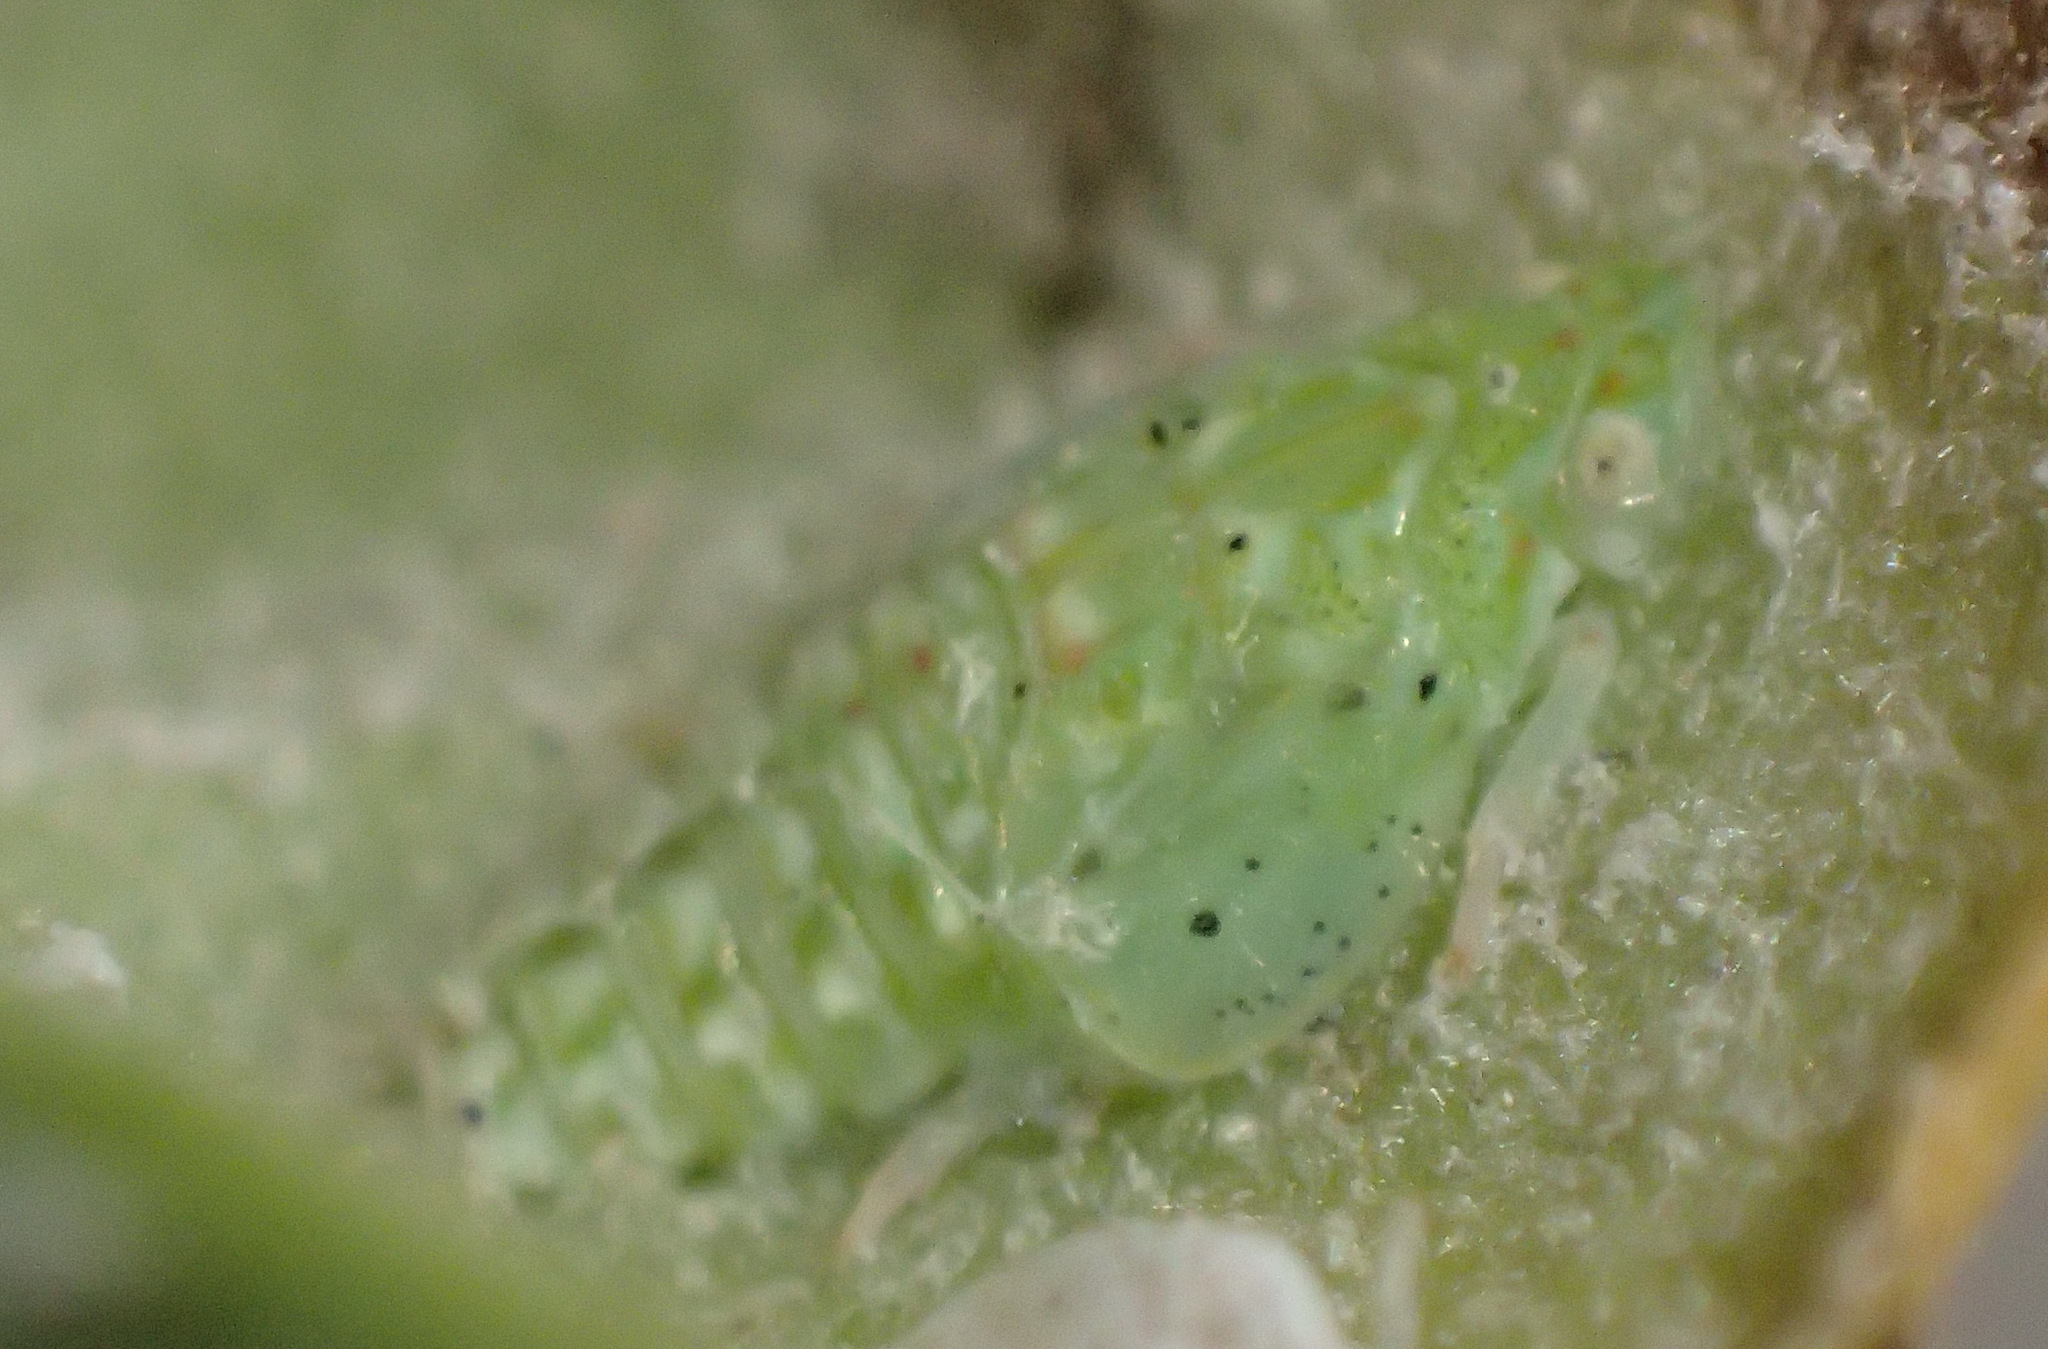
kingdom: Animalia
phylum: Arthropoda
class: Insecta
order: Hemiptera
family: Flatidae
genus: Siphanta
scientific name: Siphanta acuta
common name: Torpedo bug
